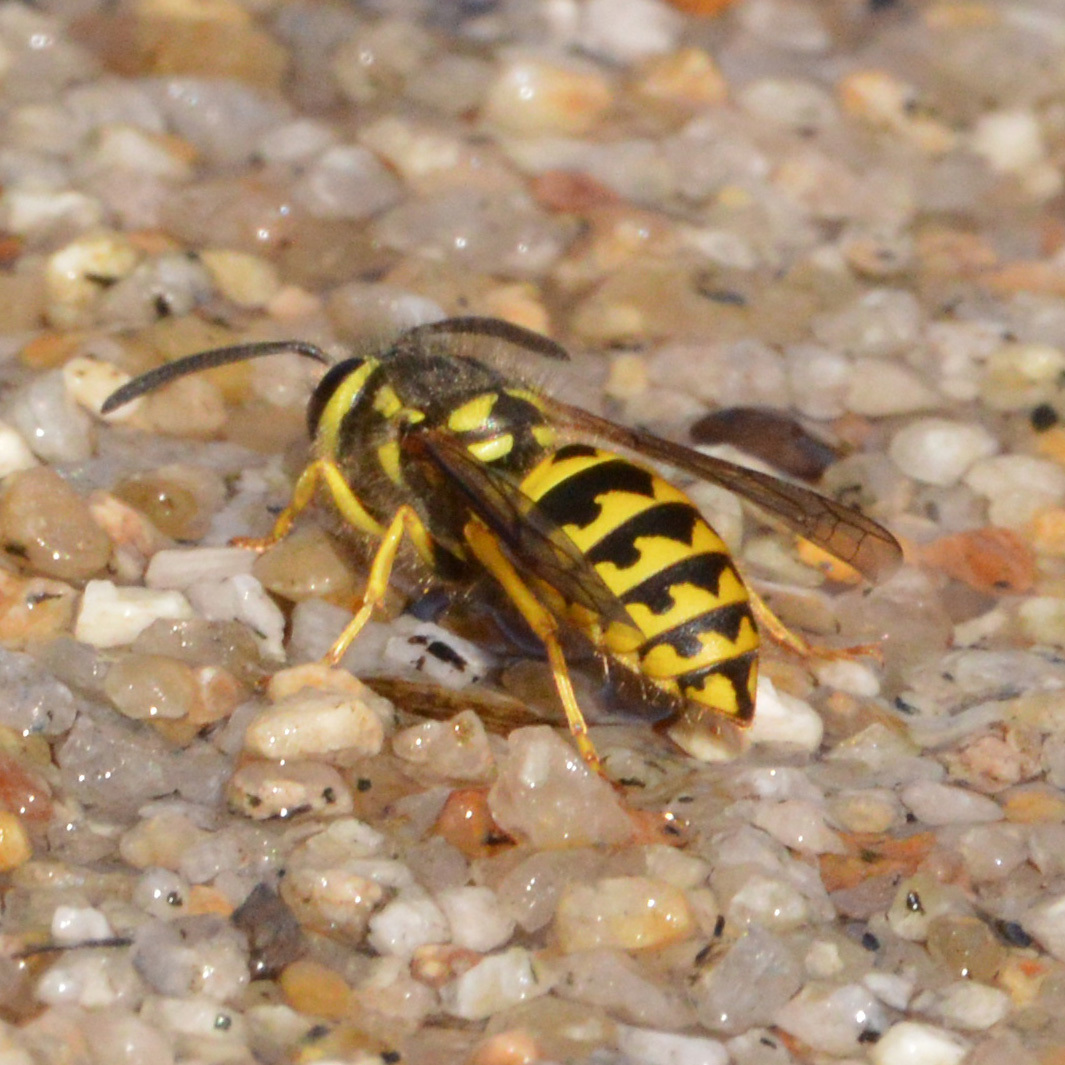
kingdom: Animalia
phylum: Arthropoda
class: Insecta
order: Hymenoptera
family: Vespidae
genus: Vespula
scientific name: Vespula pensylvanica
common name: Western yellowjacket
